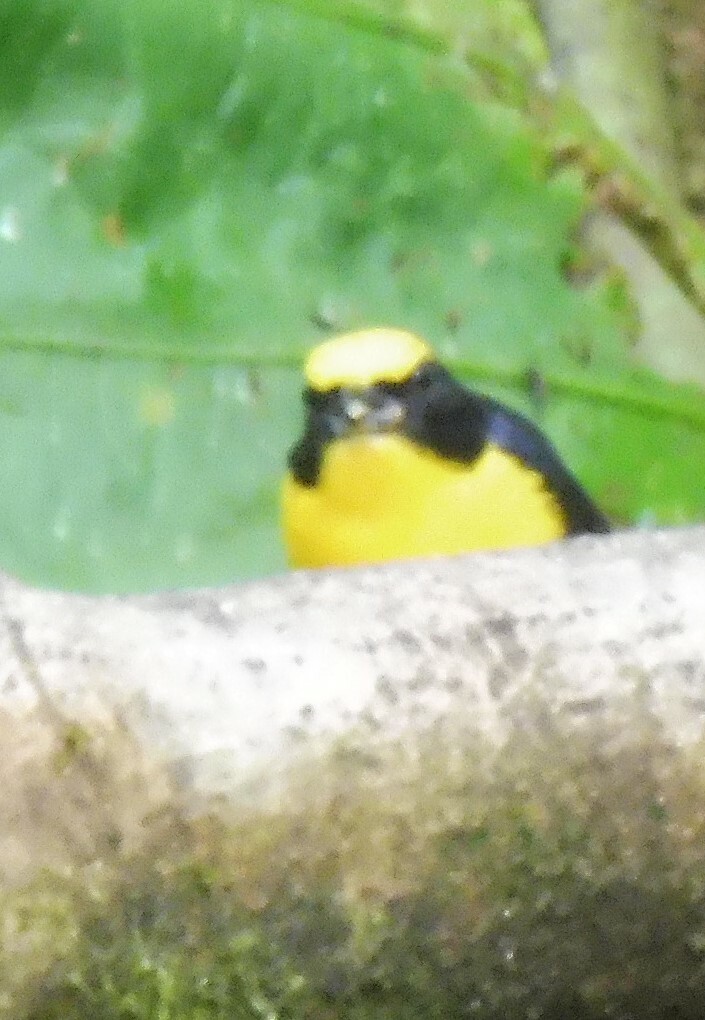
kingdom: Animalia
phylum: Chordata
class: Aves
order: Passeriformes
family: Fringillidae
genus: Euphonia
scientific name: Euphonia laniirostris
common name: Thick-billed euphonia
